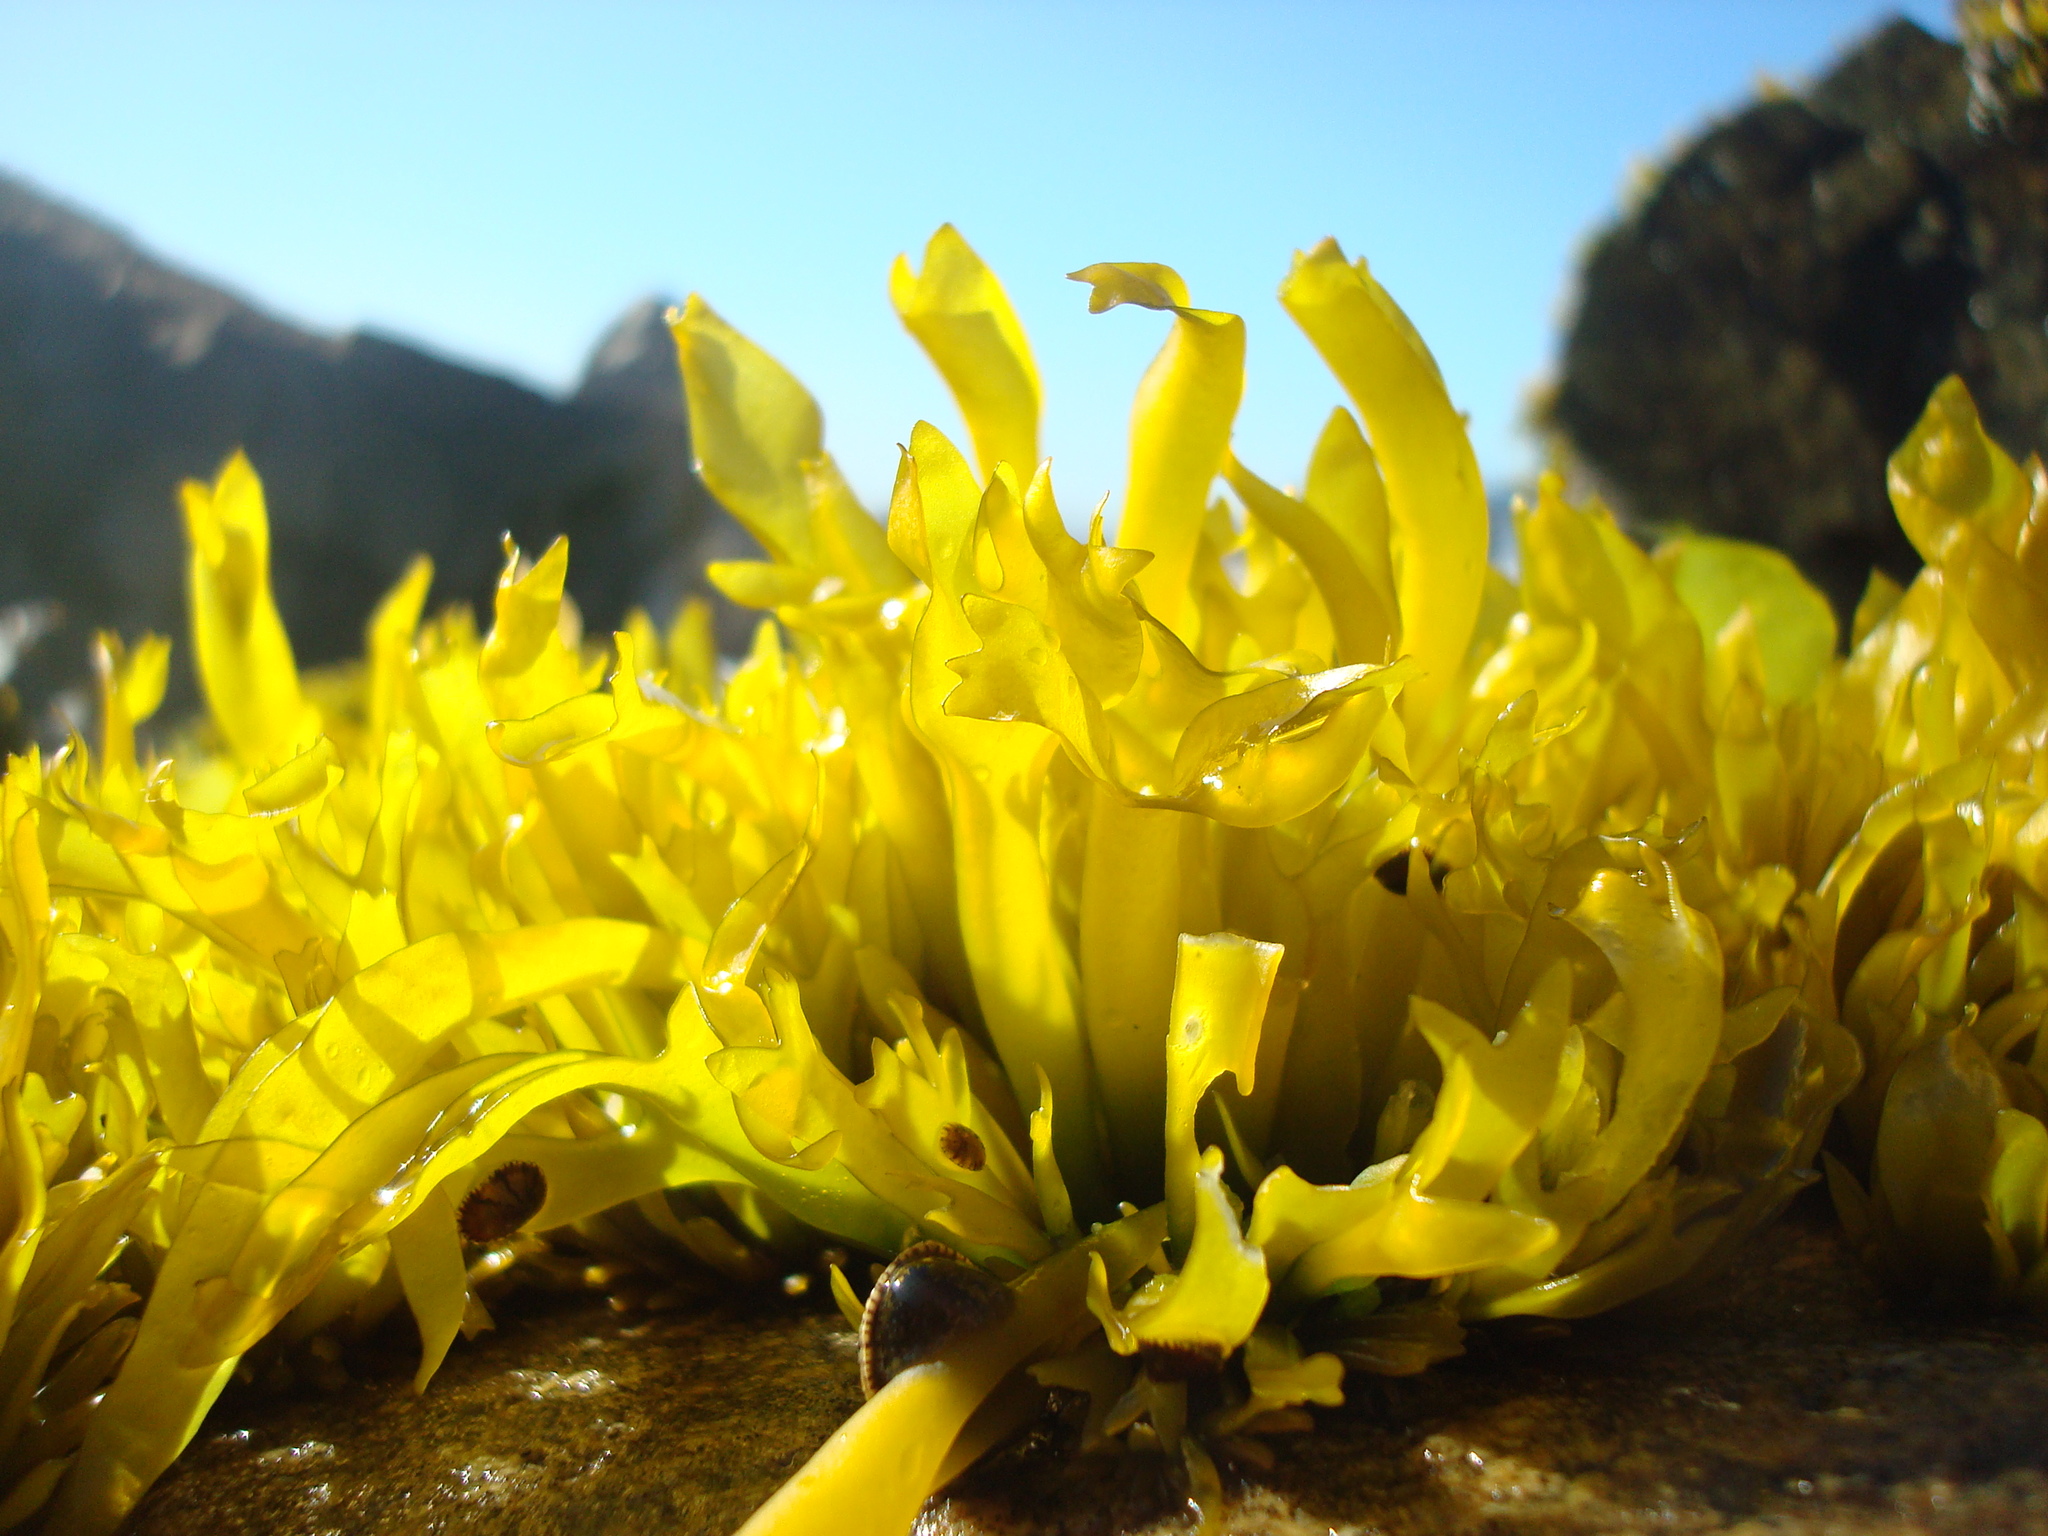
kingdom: Plantae
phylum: Rhodophyta
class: Florideophyceae
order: Gigartinales
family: Gigartinaceae
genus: Mazzaella
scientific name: Mazzaella laminarioides
